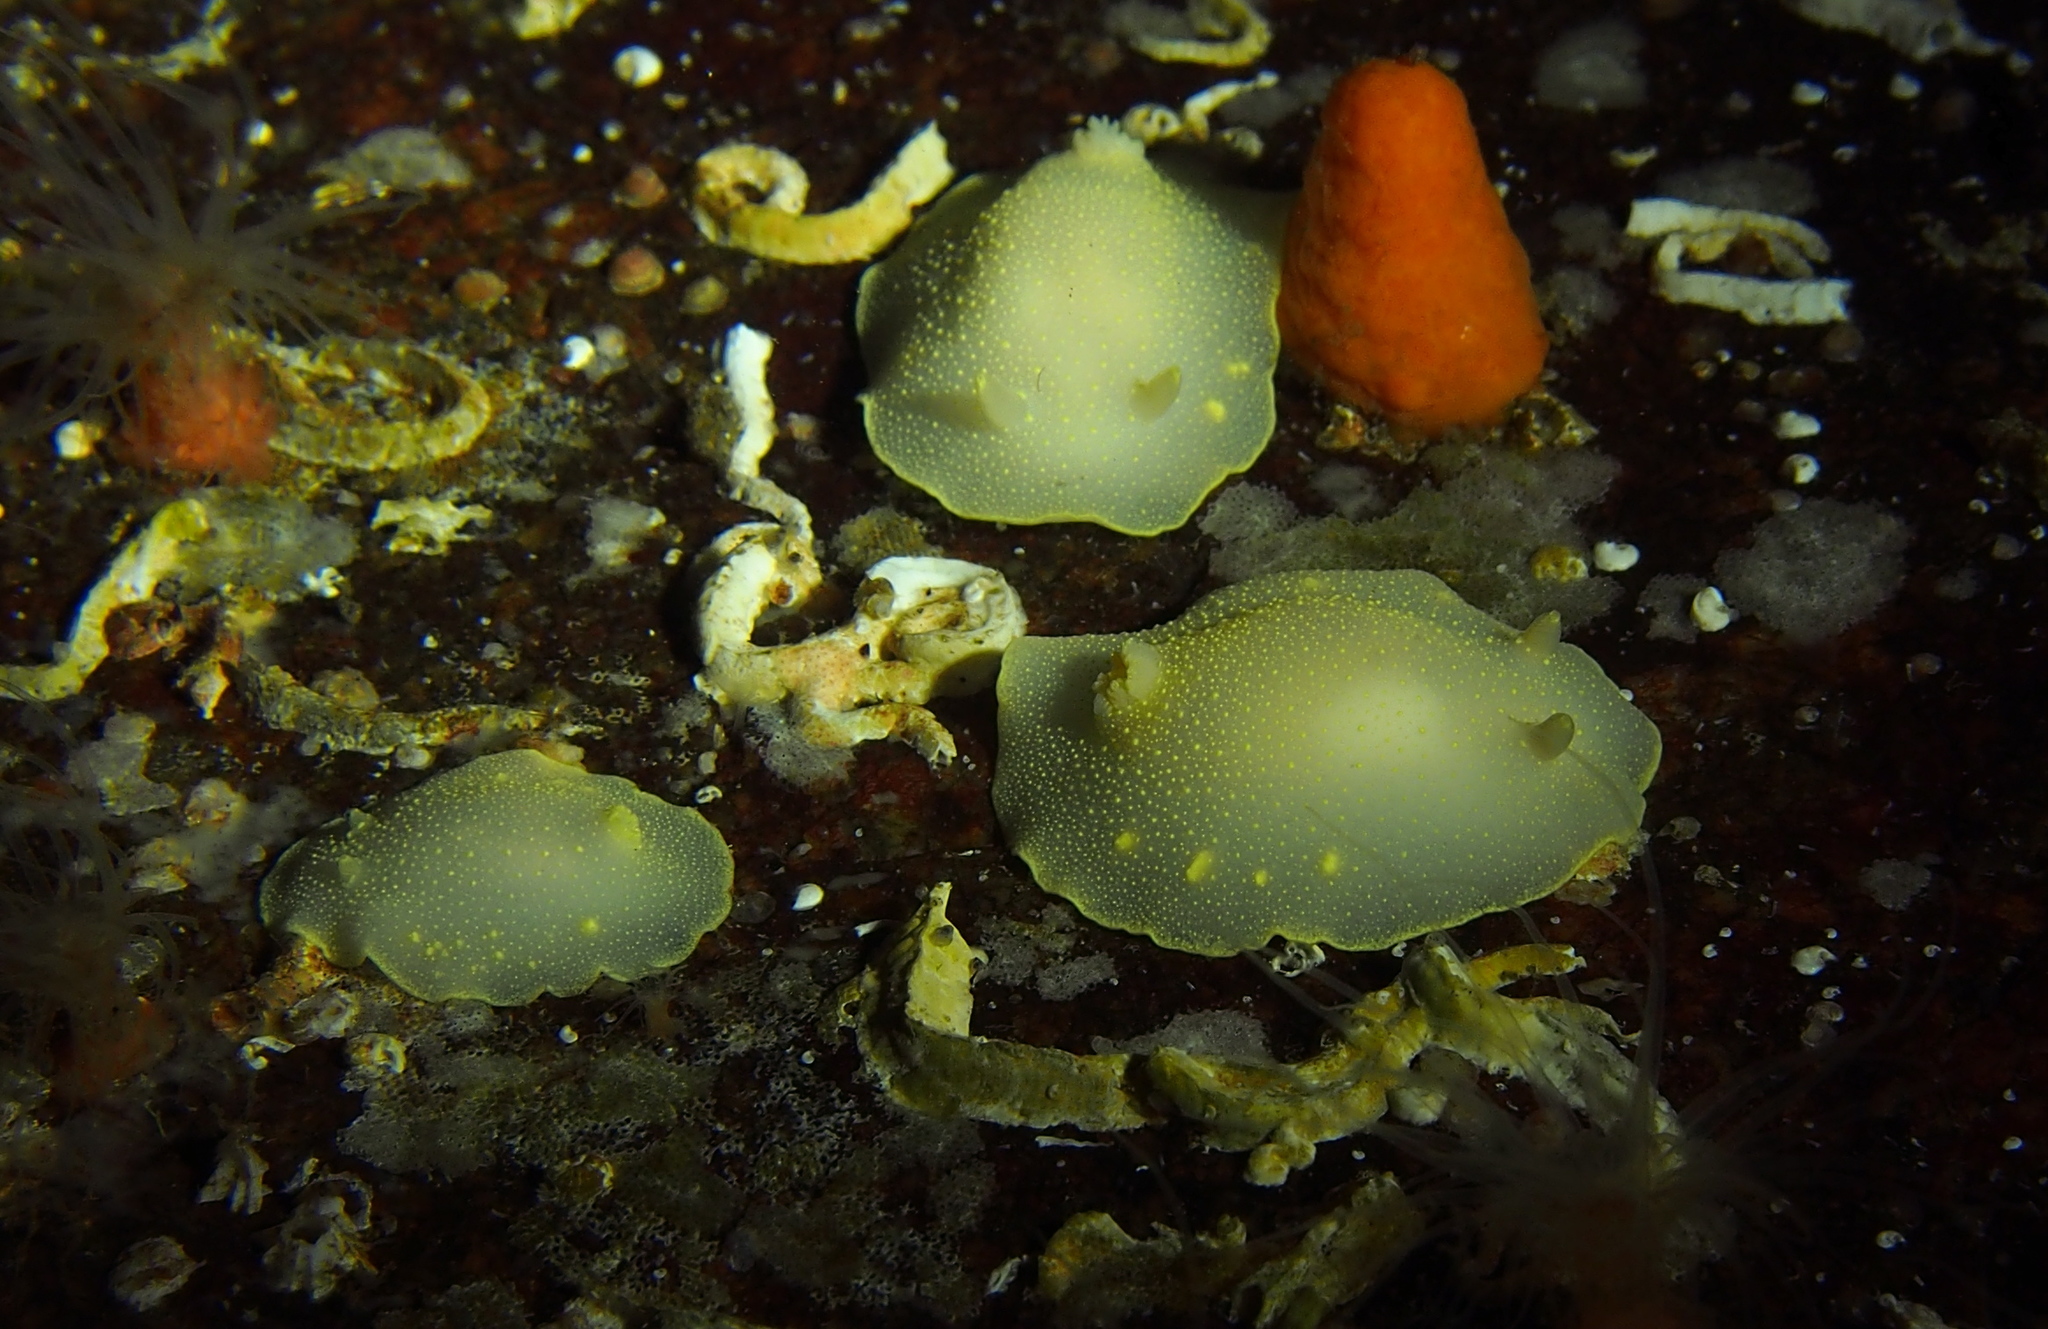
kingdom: Animalia
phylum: Mollusca
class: Gastropoda
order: Nudibranchia
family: Cadlinidae
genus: Cadlina
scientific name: Cadlina laevis
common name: White atlantic cadlina
